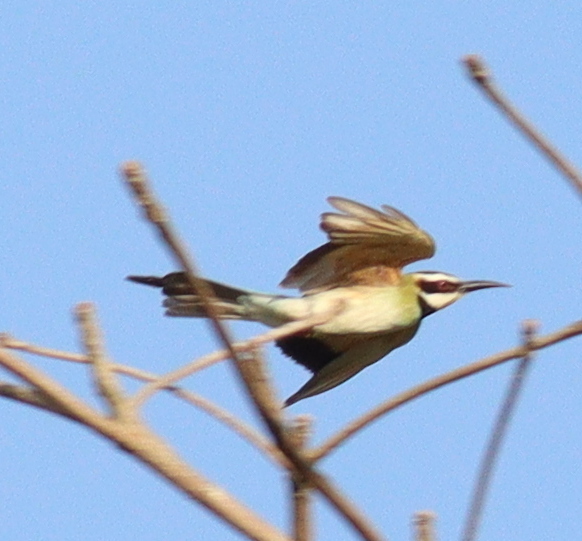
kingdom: Animalia
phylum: Chordata
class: Aves
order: Coraciiformes
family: Meropidae
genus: Merops
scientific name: Merops albicollis
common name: White-throated bee-eater
